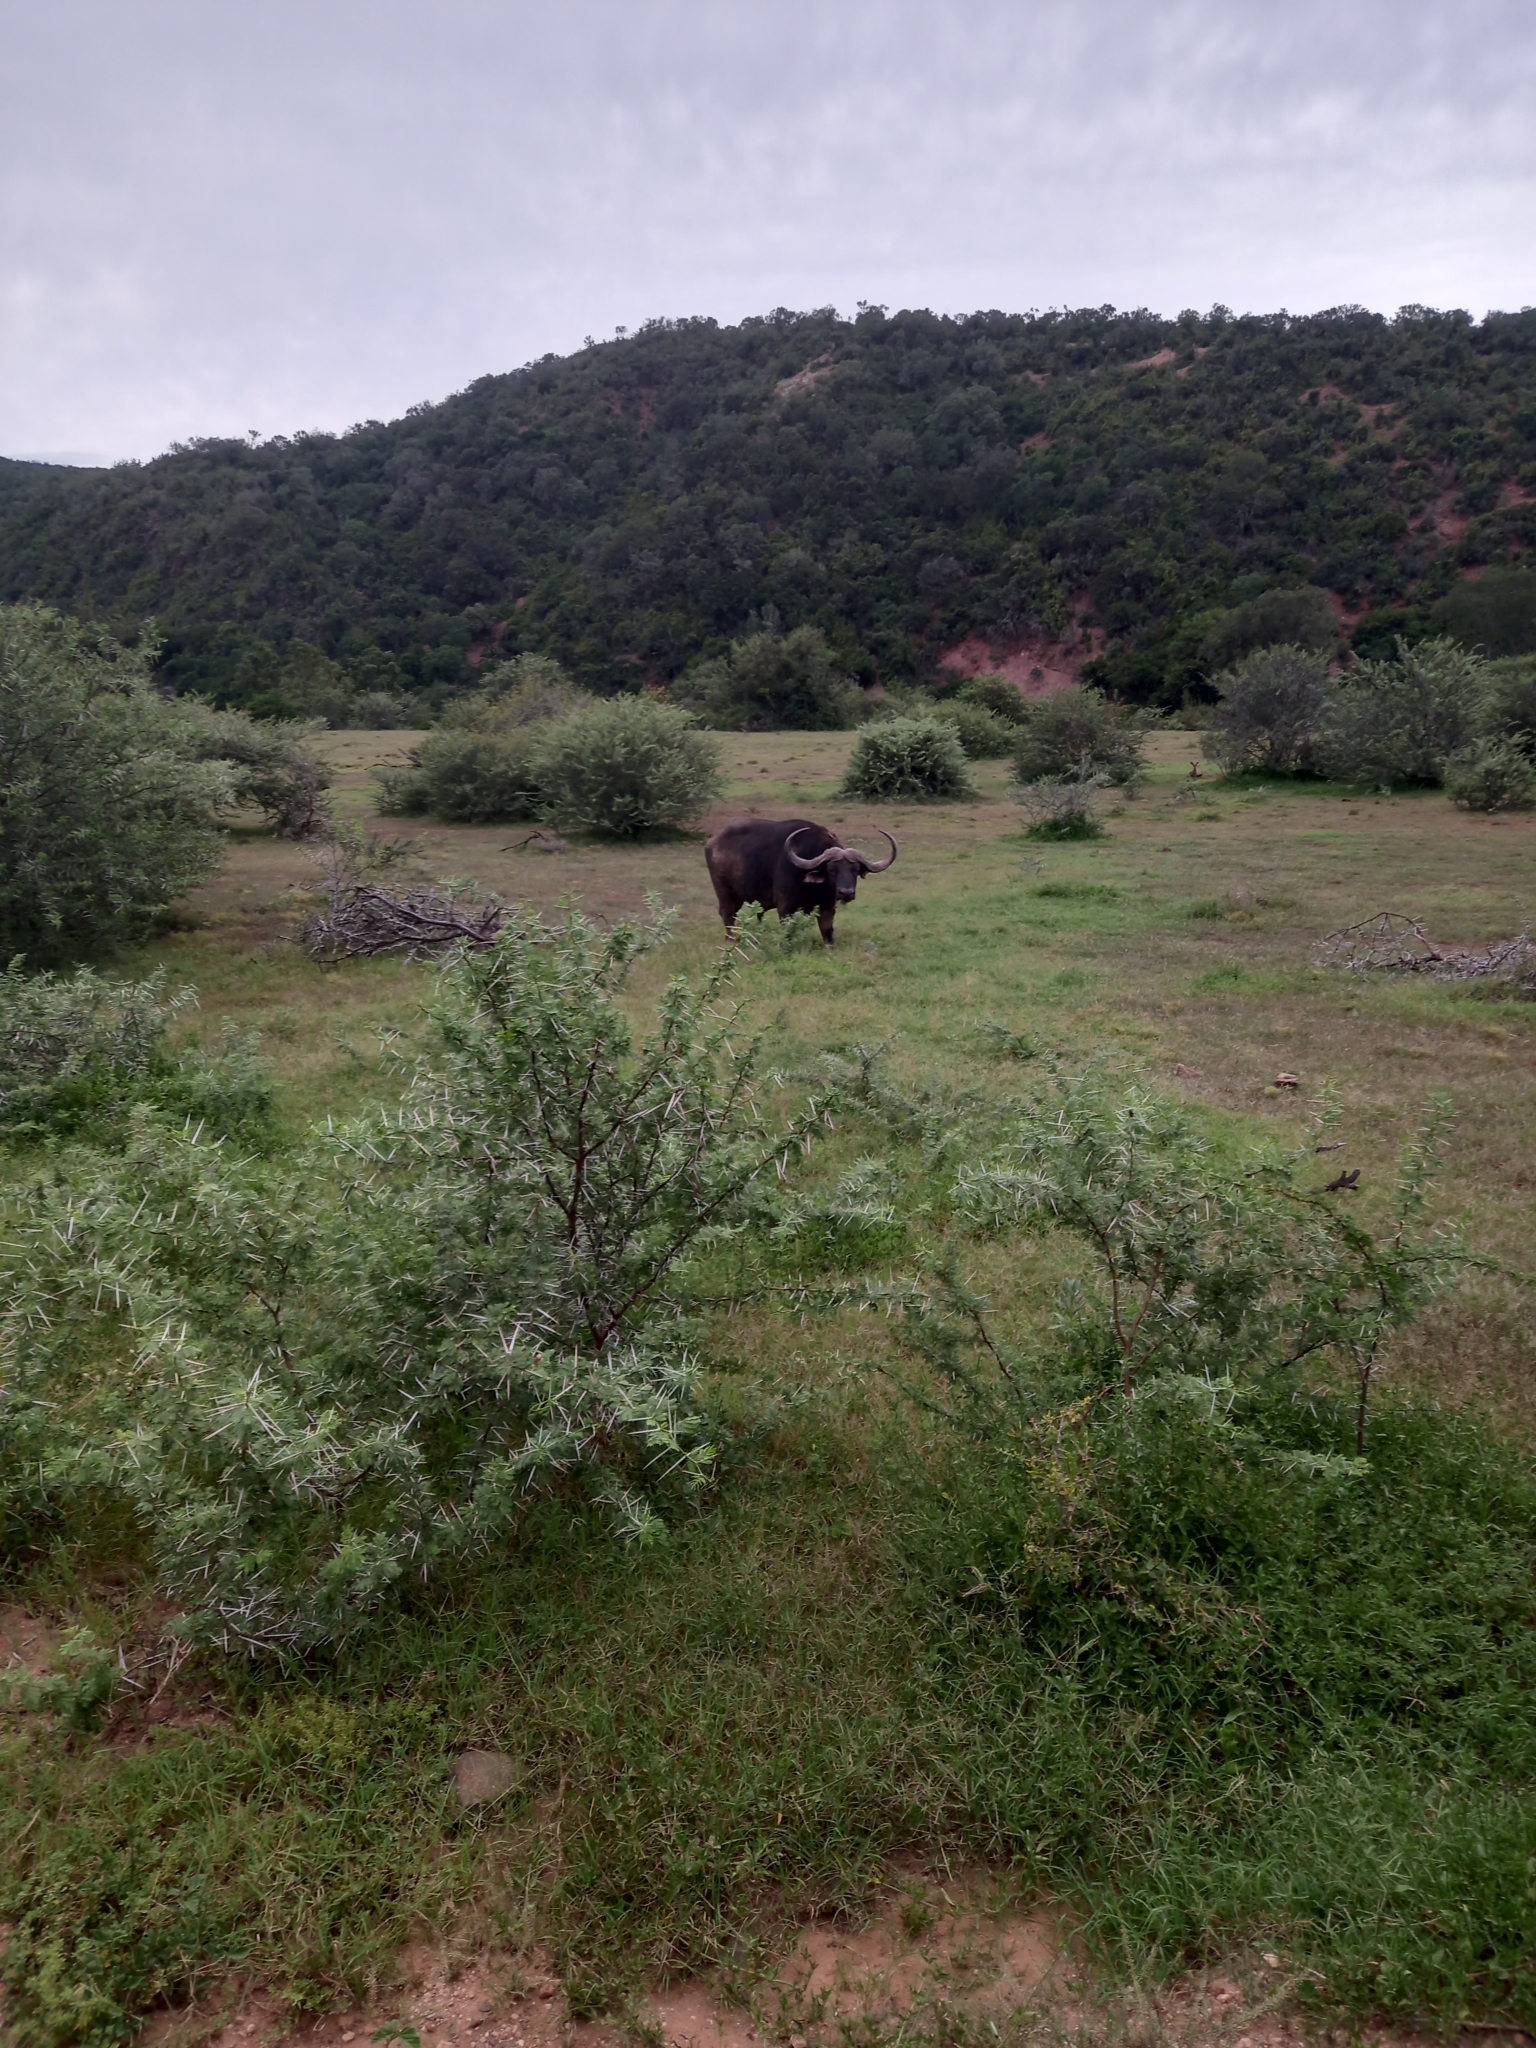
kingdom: Animalia
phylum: Chordata
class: Mammalia
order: Artiodactyla
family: Bovidae
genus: Syncerus
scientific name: Syncerus caffer
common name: African buffalo
